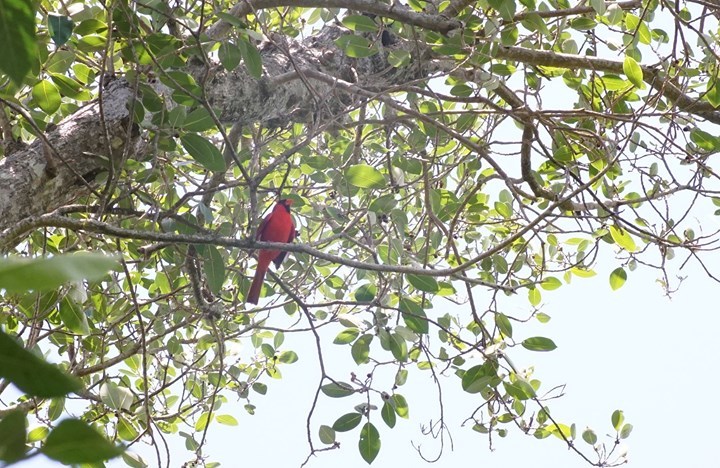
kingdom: Animalia
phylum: Chordata
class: Aves
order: Passeriformes
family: Cardinalidae
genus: Cardinalis
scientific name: Cardinalis cardinalis
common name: Northern cardinal
